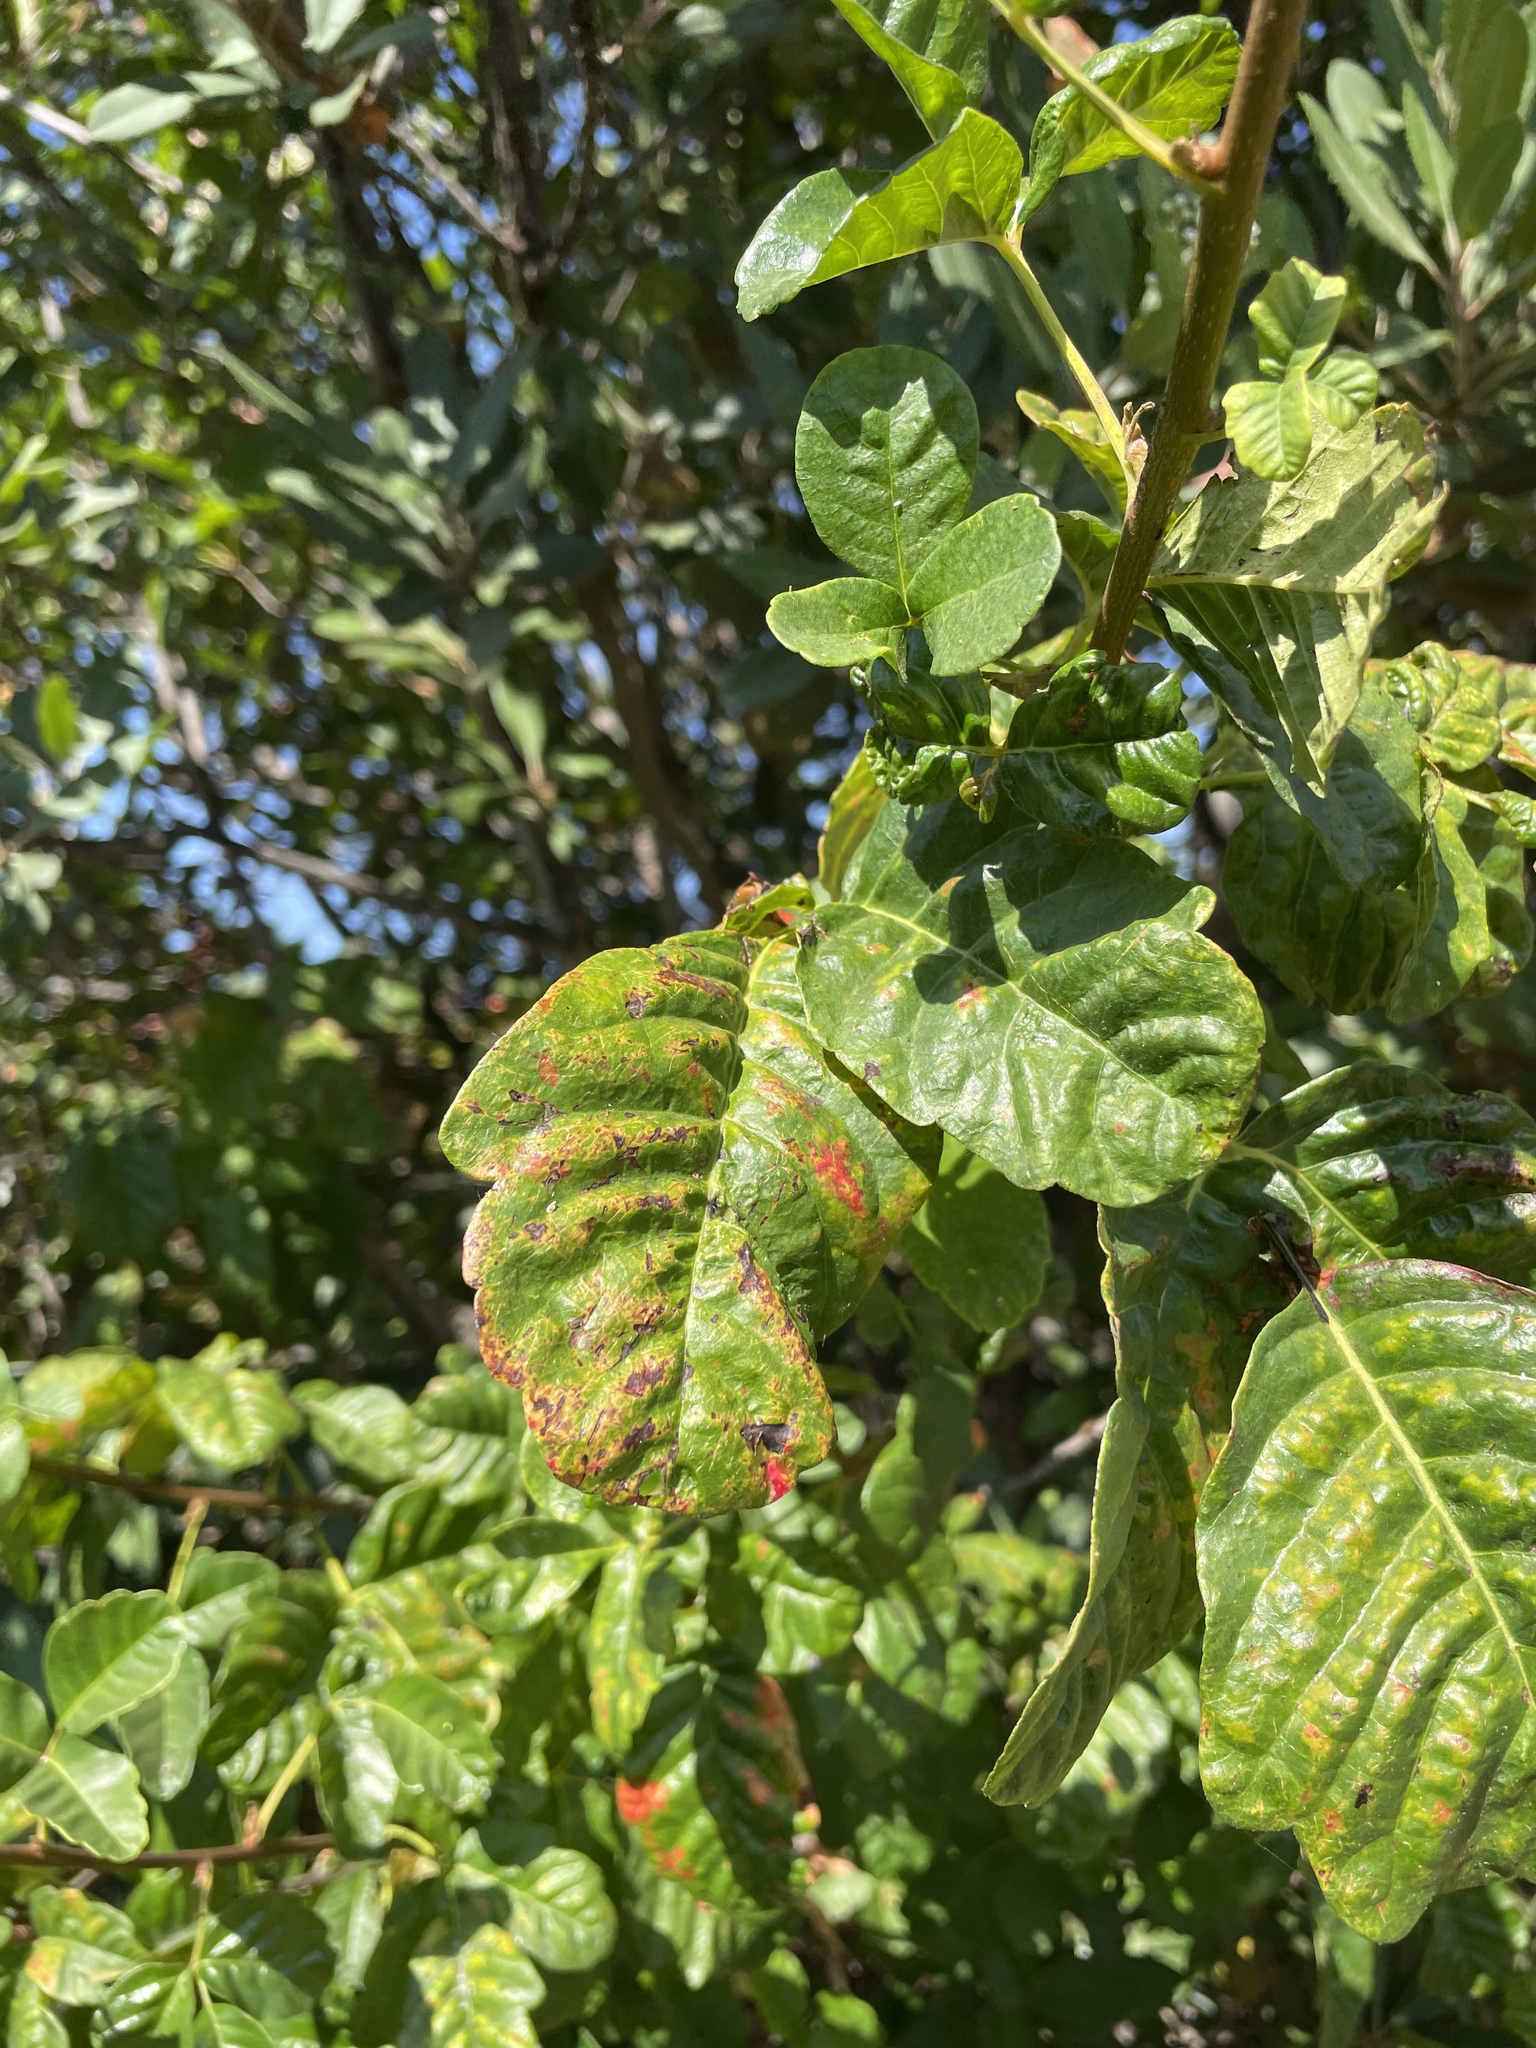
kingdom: Plantae
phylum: Tracheophyta
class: Magnoliopsida
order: Sapindales
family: Anacardiaceae
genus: Toxicodendron
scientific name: Toxicodendron diversilobum
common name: Pacific poison-oak
